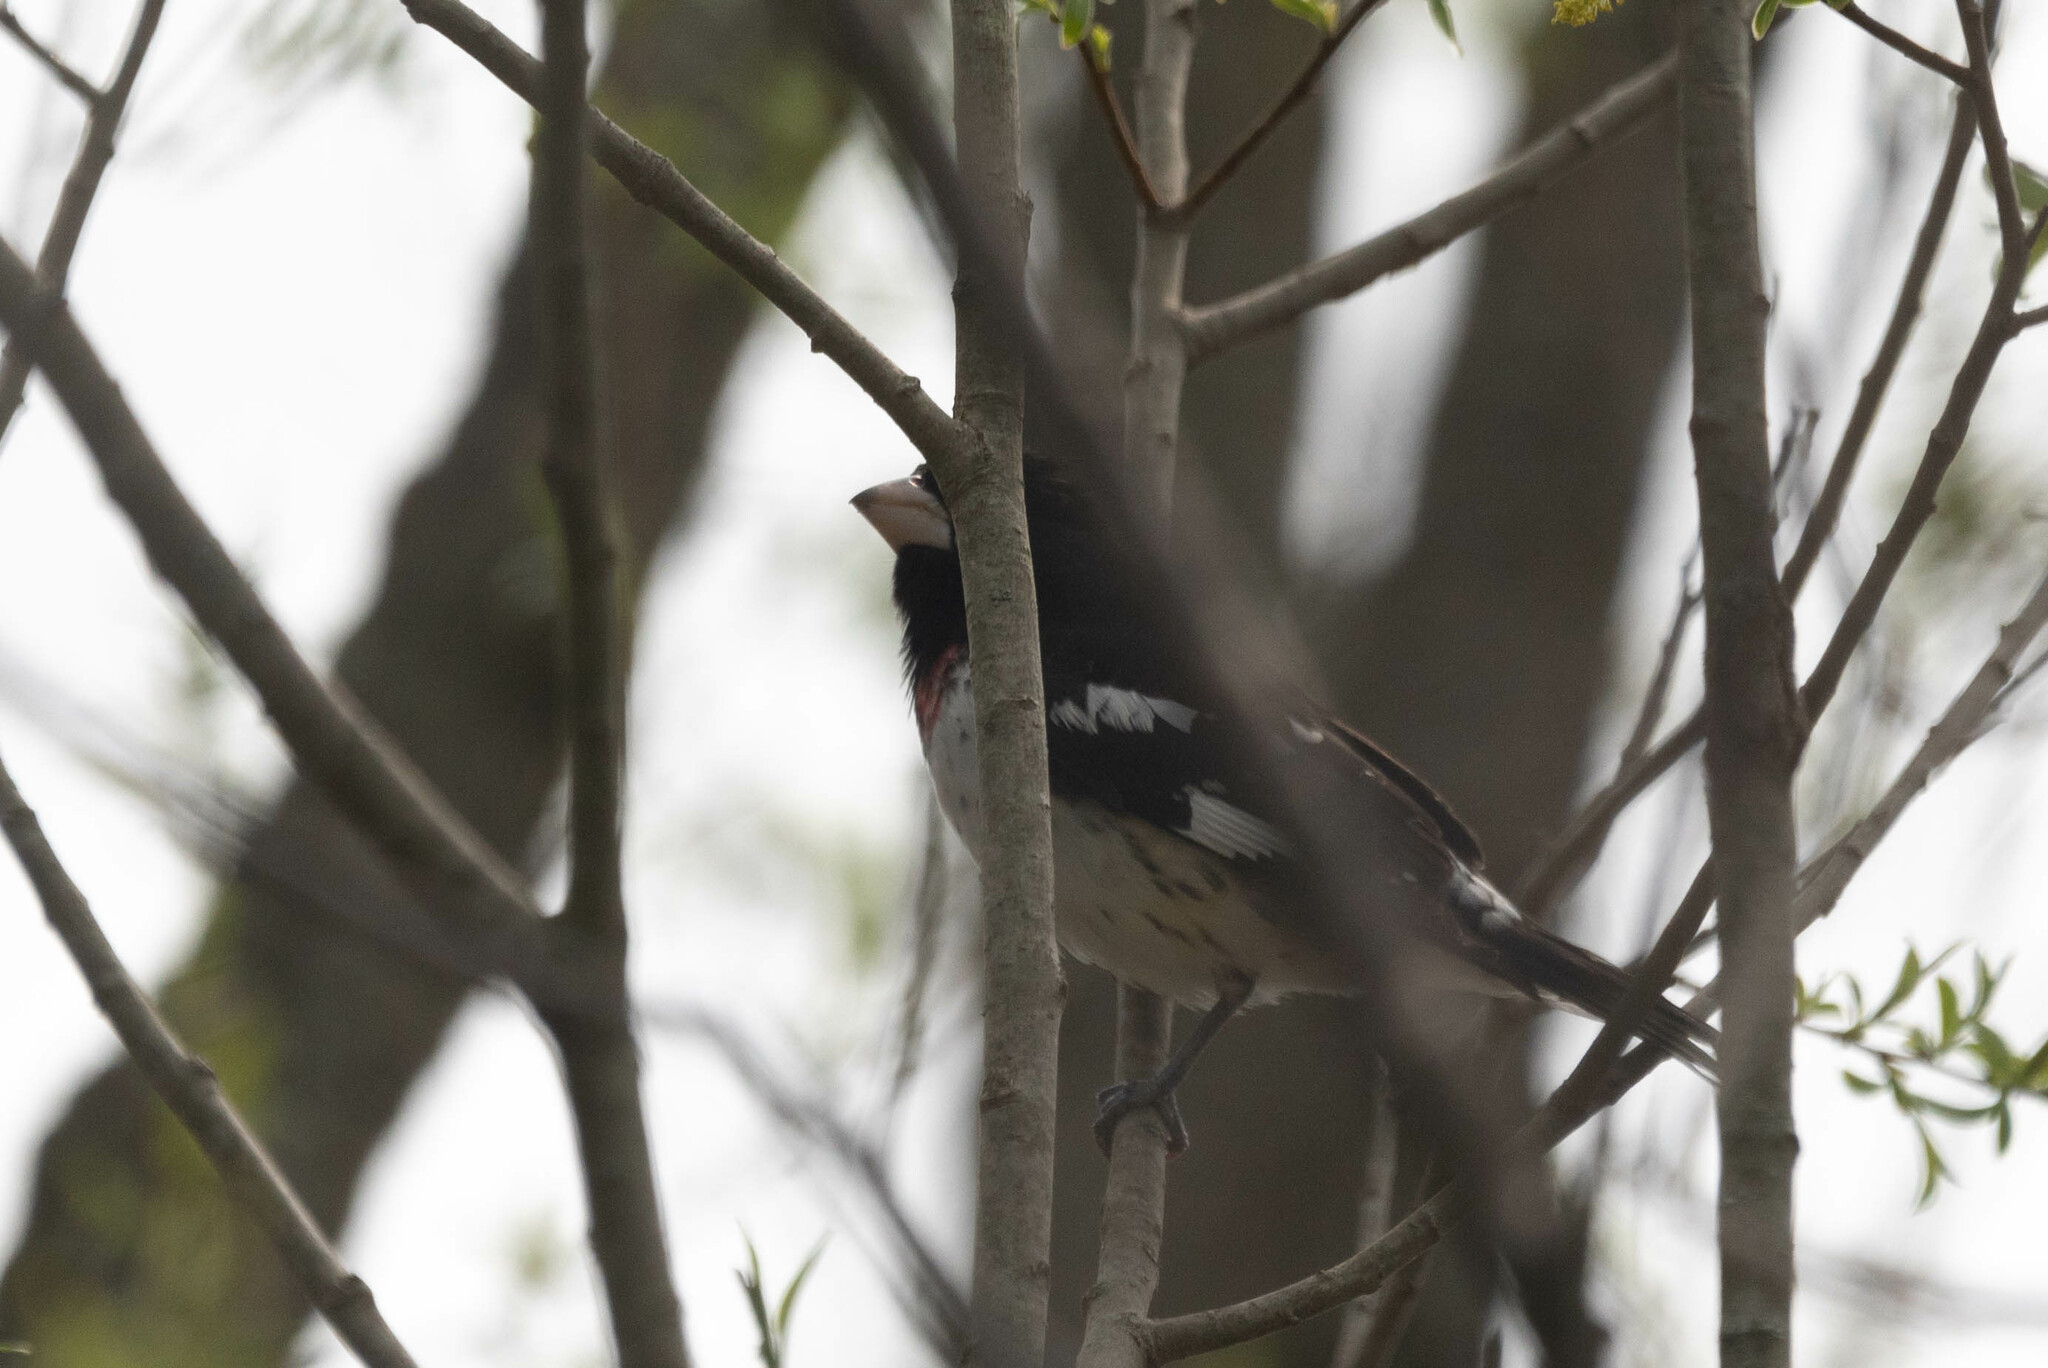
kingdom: Animalia
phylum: Chordata
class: Aves
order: Passeriformes
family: Cardinalidae
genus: Pheucticus
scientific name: Pheucticus ludovicianus
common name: Rose-breasted grosbeak
